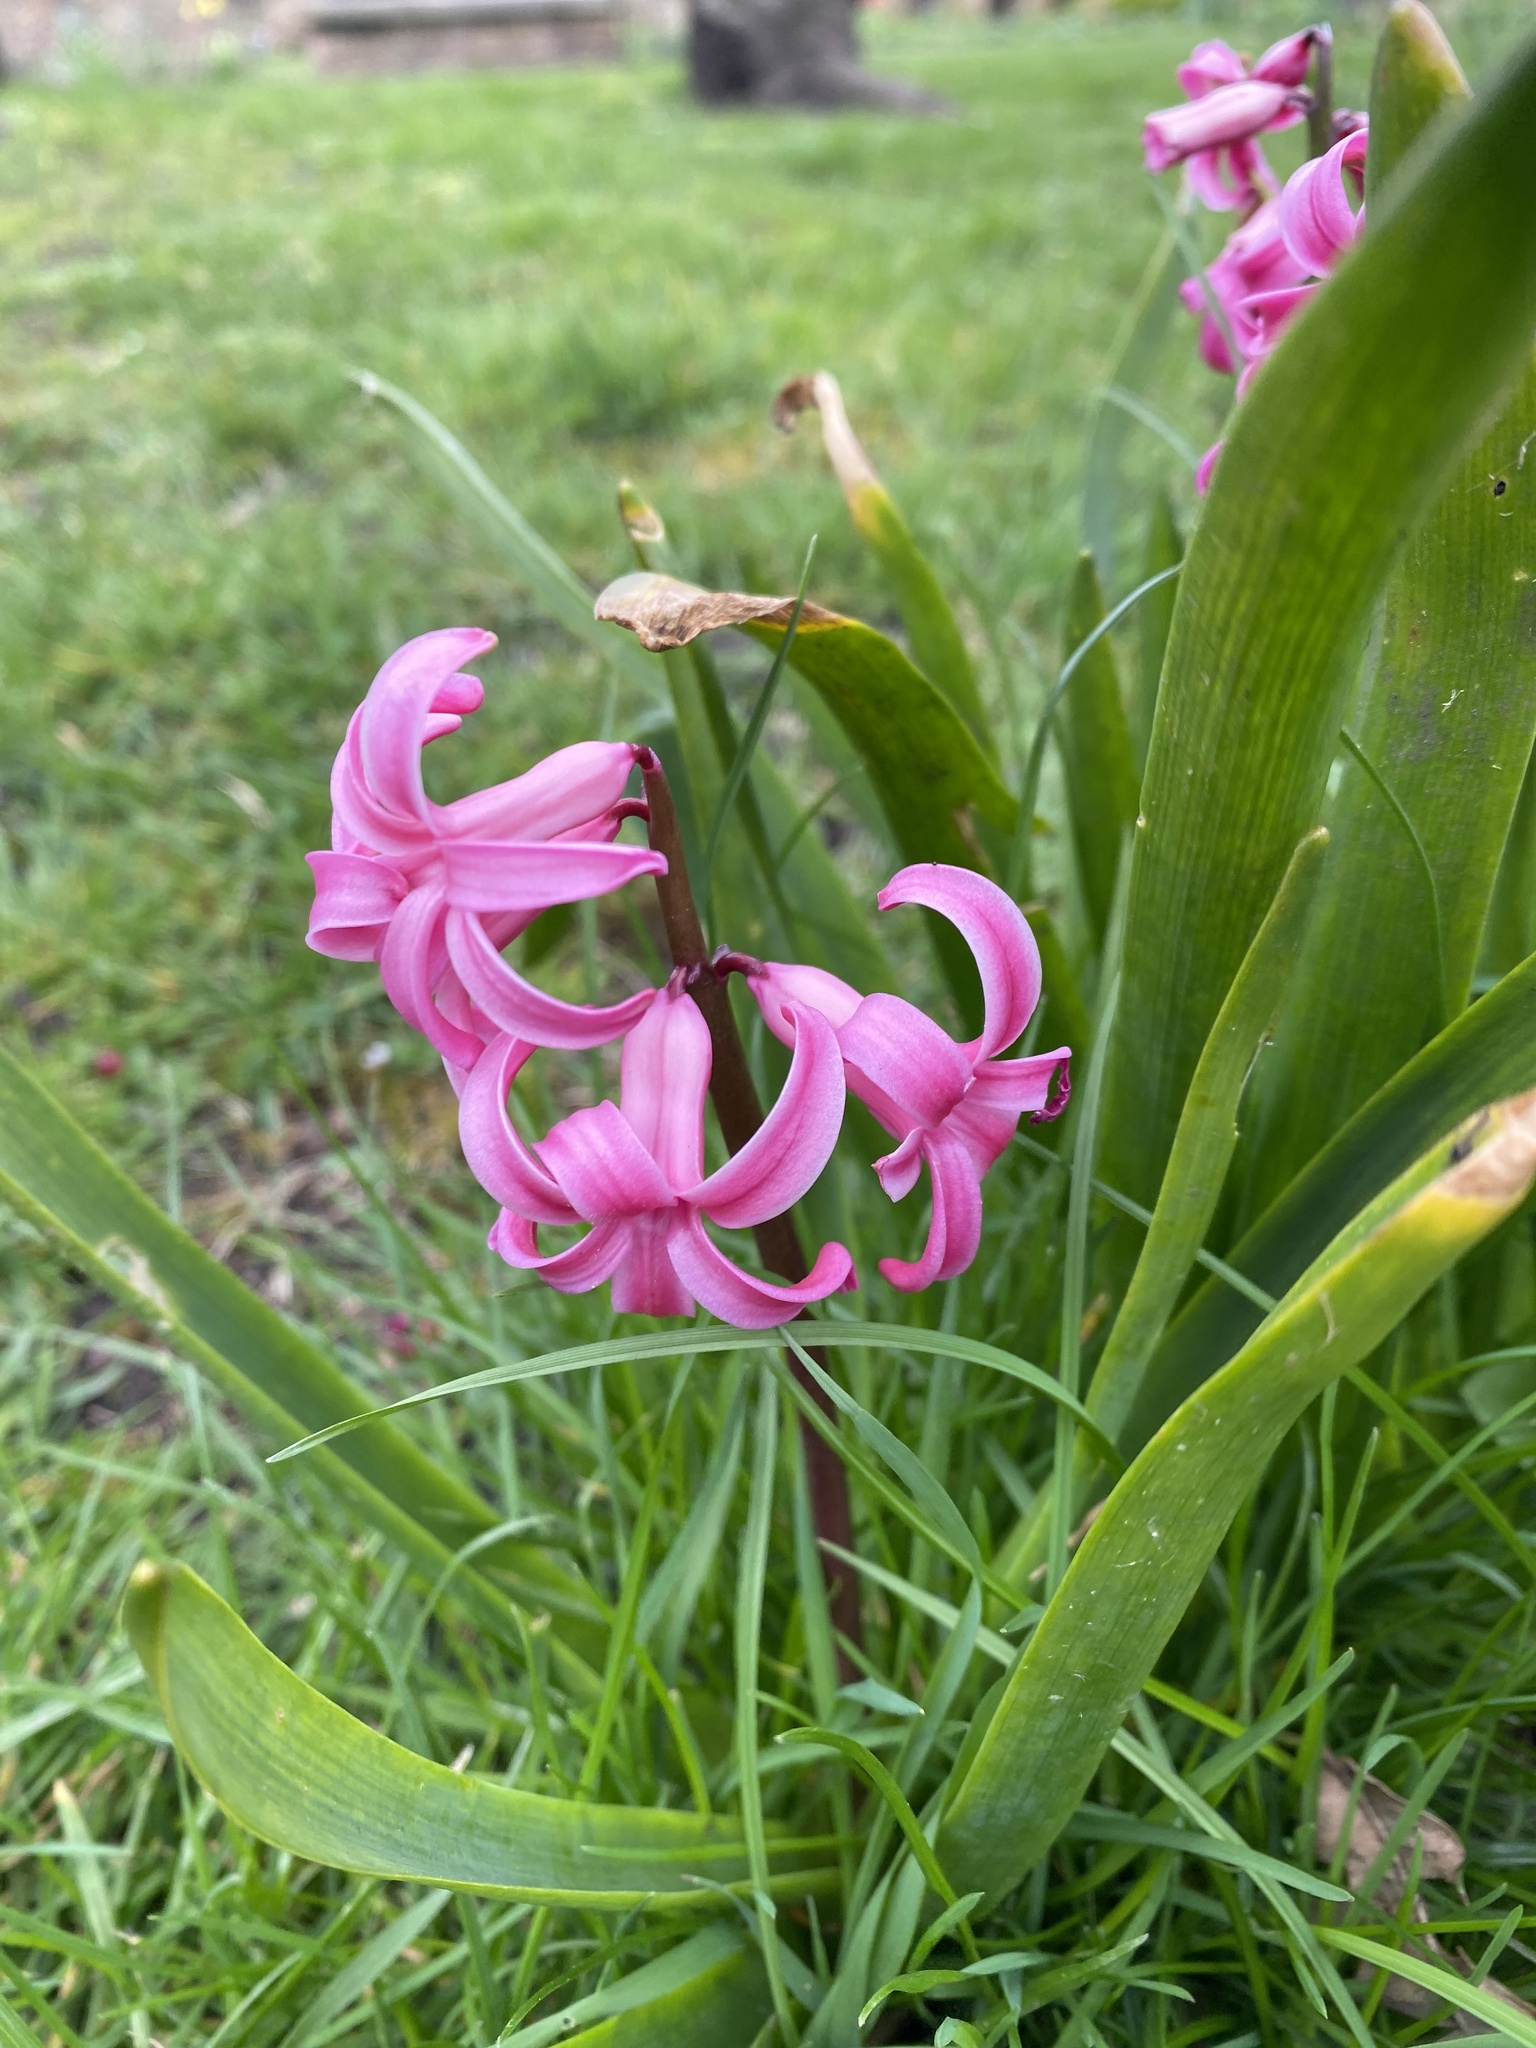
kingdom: Plantae
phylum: Tracheophyta
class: Liliopsida
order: Asparagales
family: Asparagaceae
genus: Hyacinthus
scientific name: Hyacinthus orientalis
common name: Hyacinth
